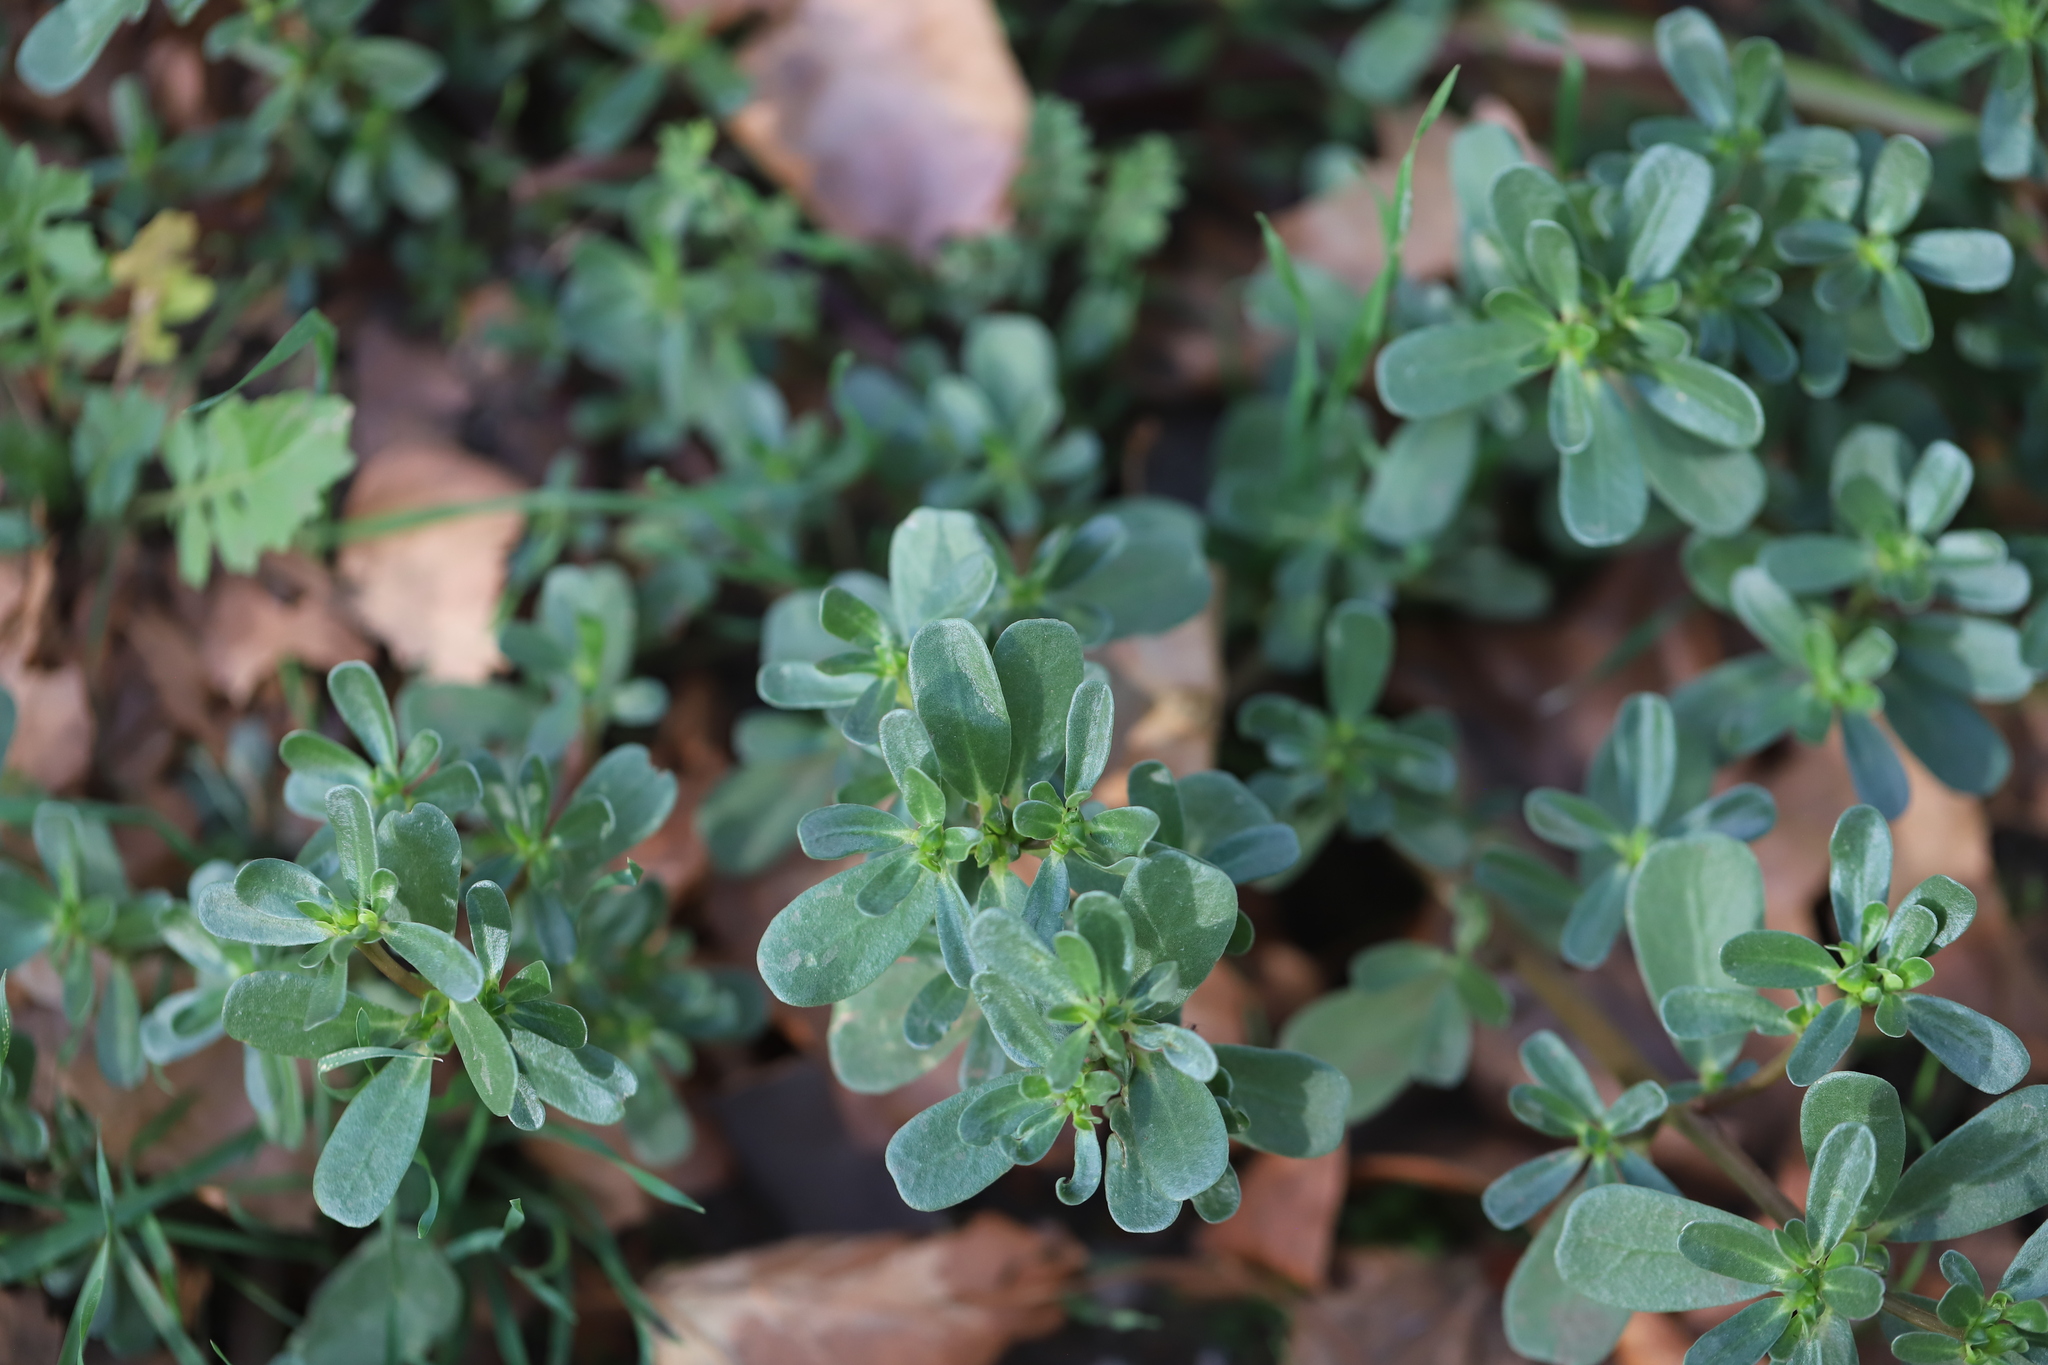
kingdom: Plantae
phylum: Tracheophyta
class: Magnoliopsida
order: Caryophyllales
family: Portulacaceae
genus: Portulaca
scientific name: Portulaca oleracea
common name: Common purslane
